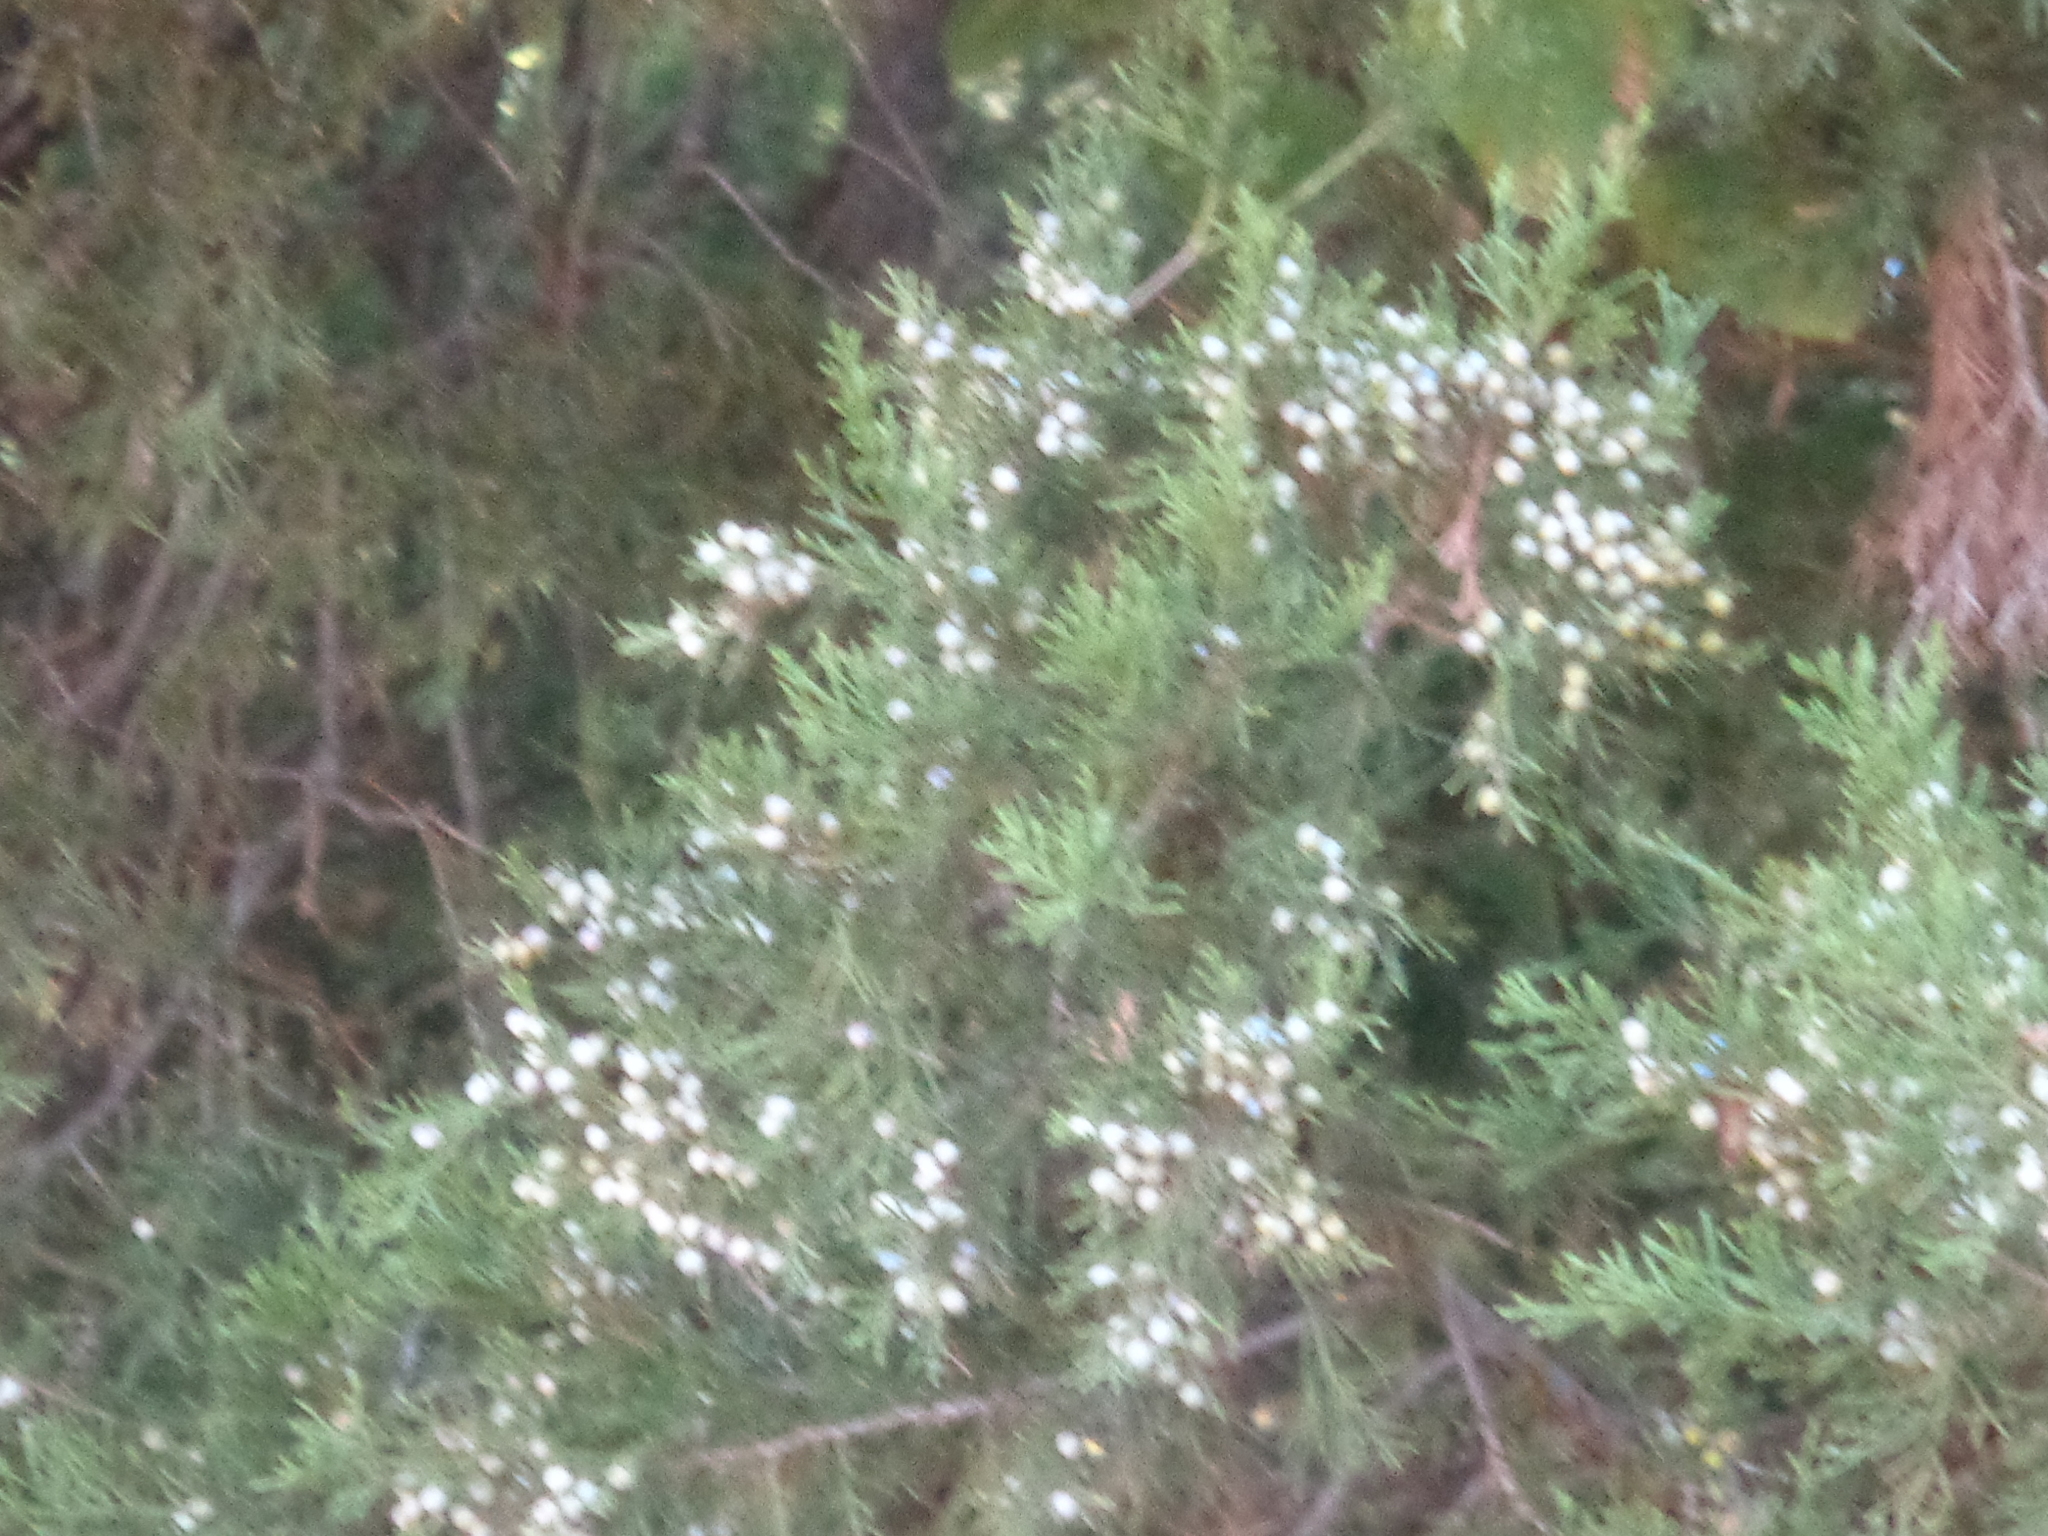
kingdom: Plantae
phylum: Tracheophyta
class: Pinopsida
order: Pinales
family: Cupressaceae
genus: Juniperus
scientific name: Juniperus virginiana
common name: Red juniper
